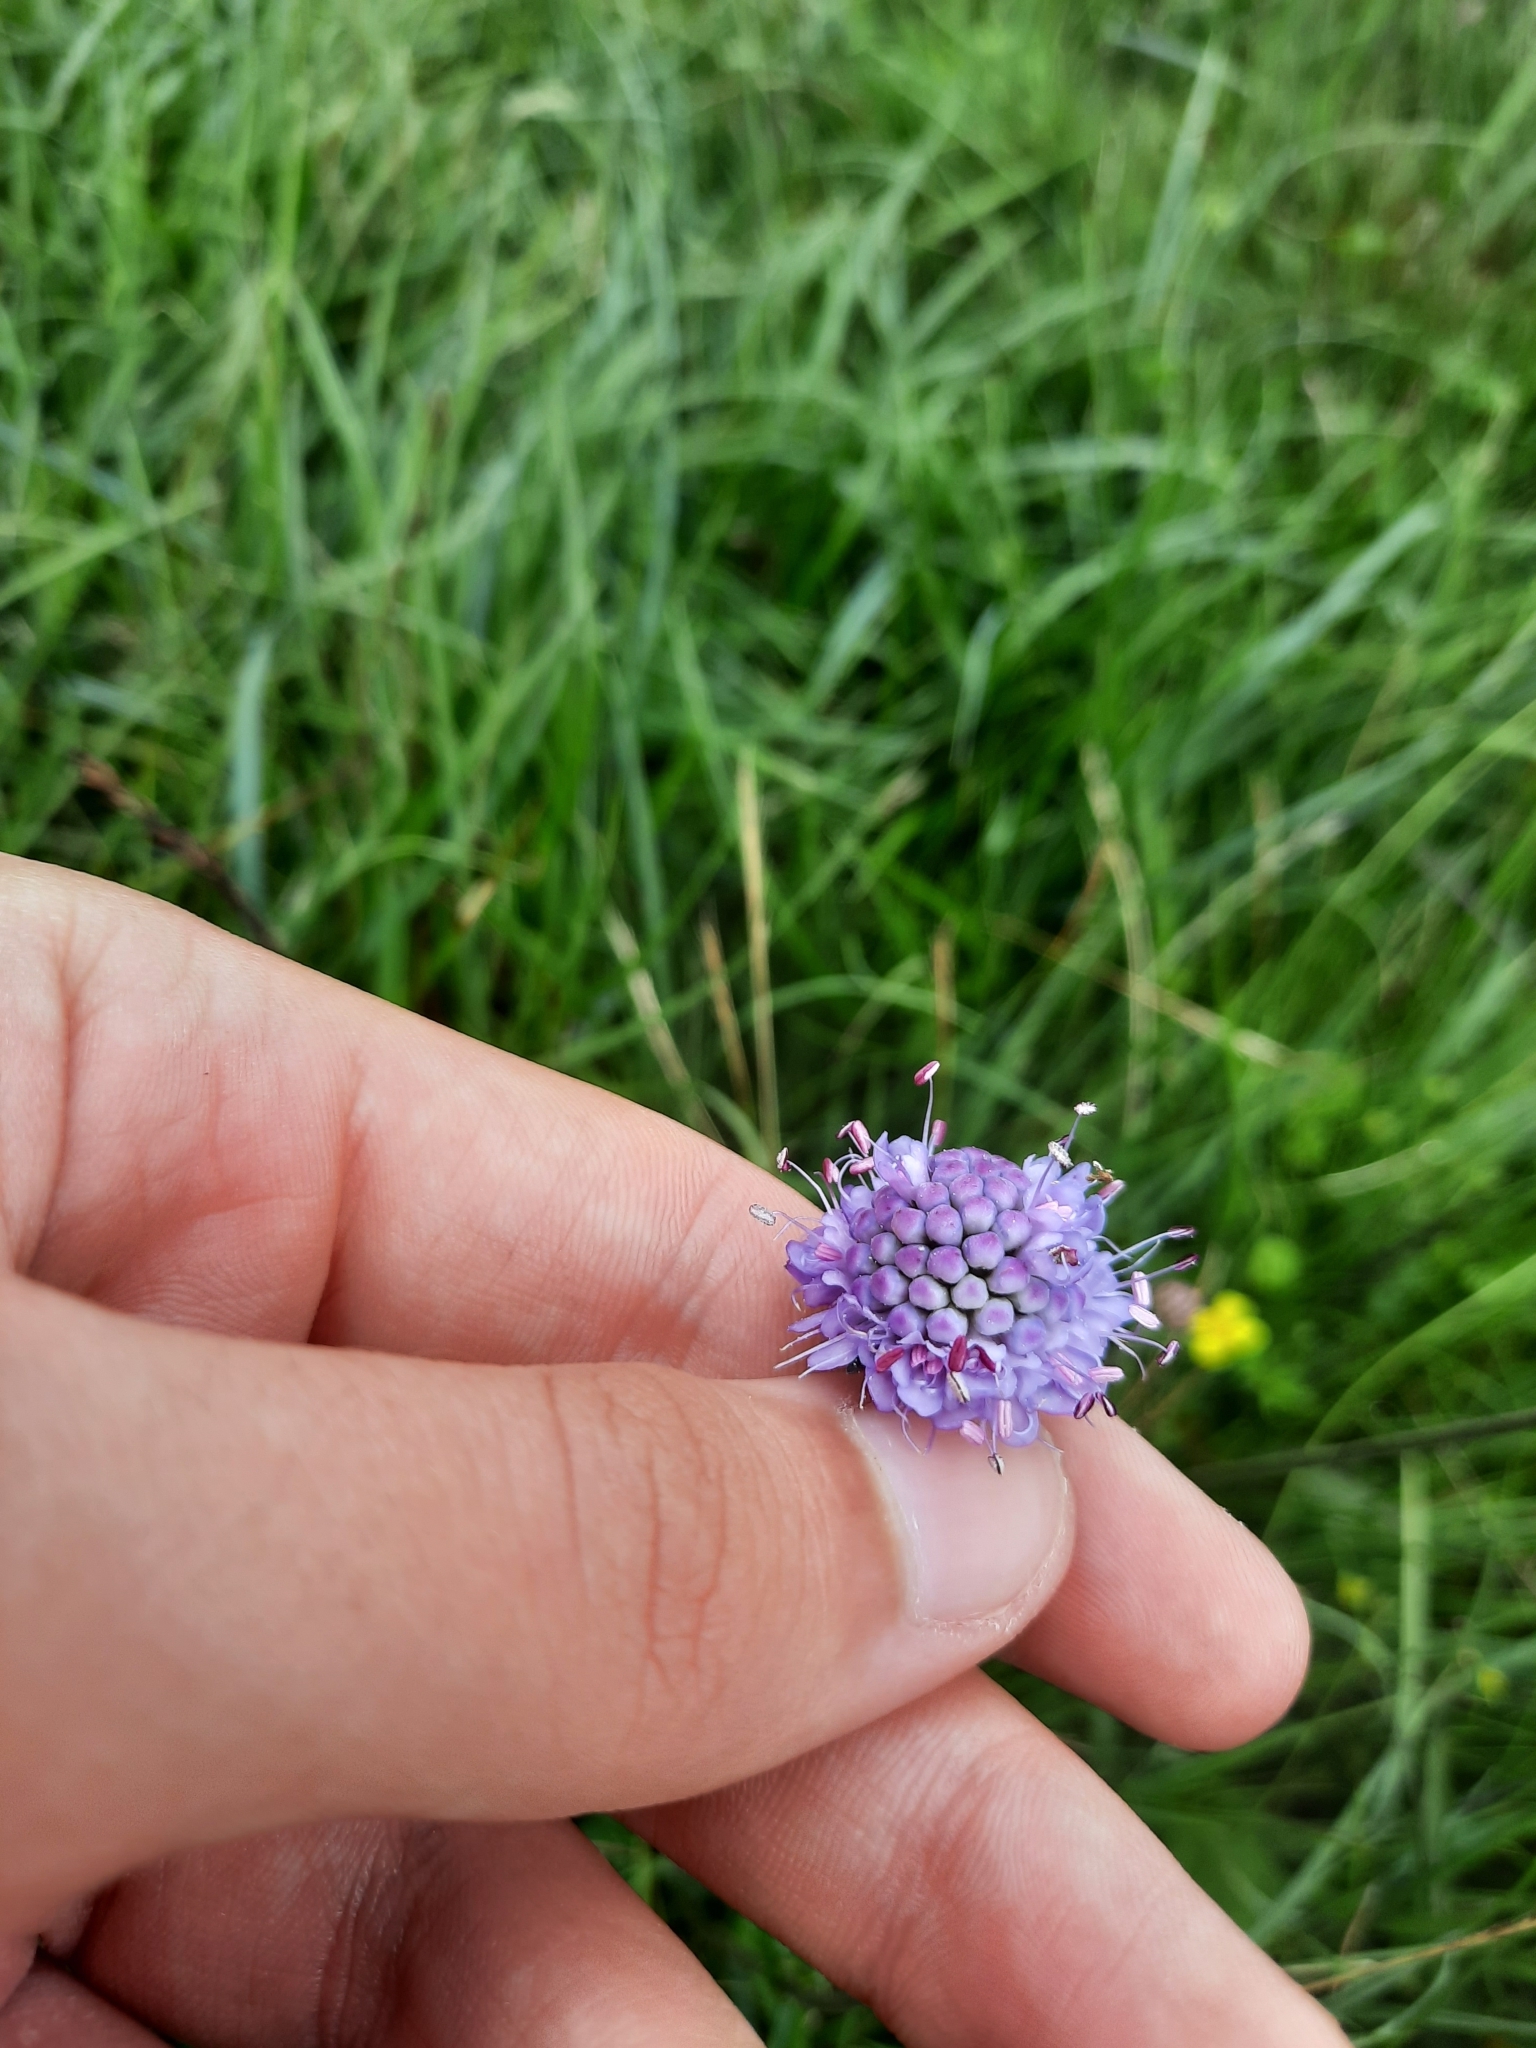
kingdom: Plantae
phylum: Tracheophyta
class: Magnoliopsida
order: Dipsacales
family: Caprifoliaceae
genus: Succisa
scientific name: Succisa pratensis
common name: Devil's-bit
